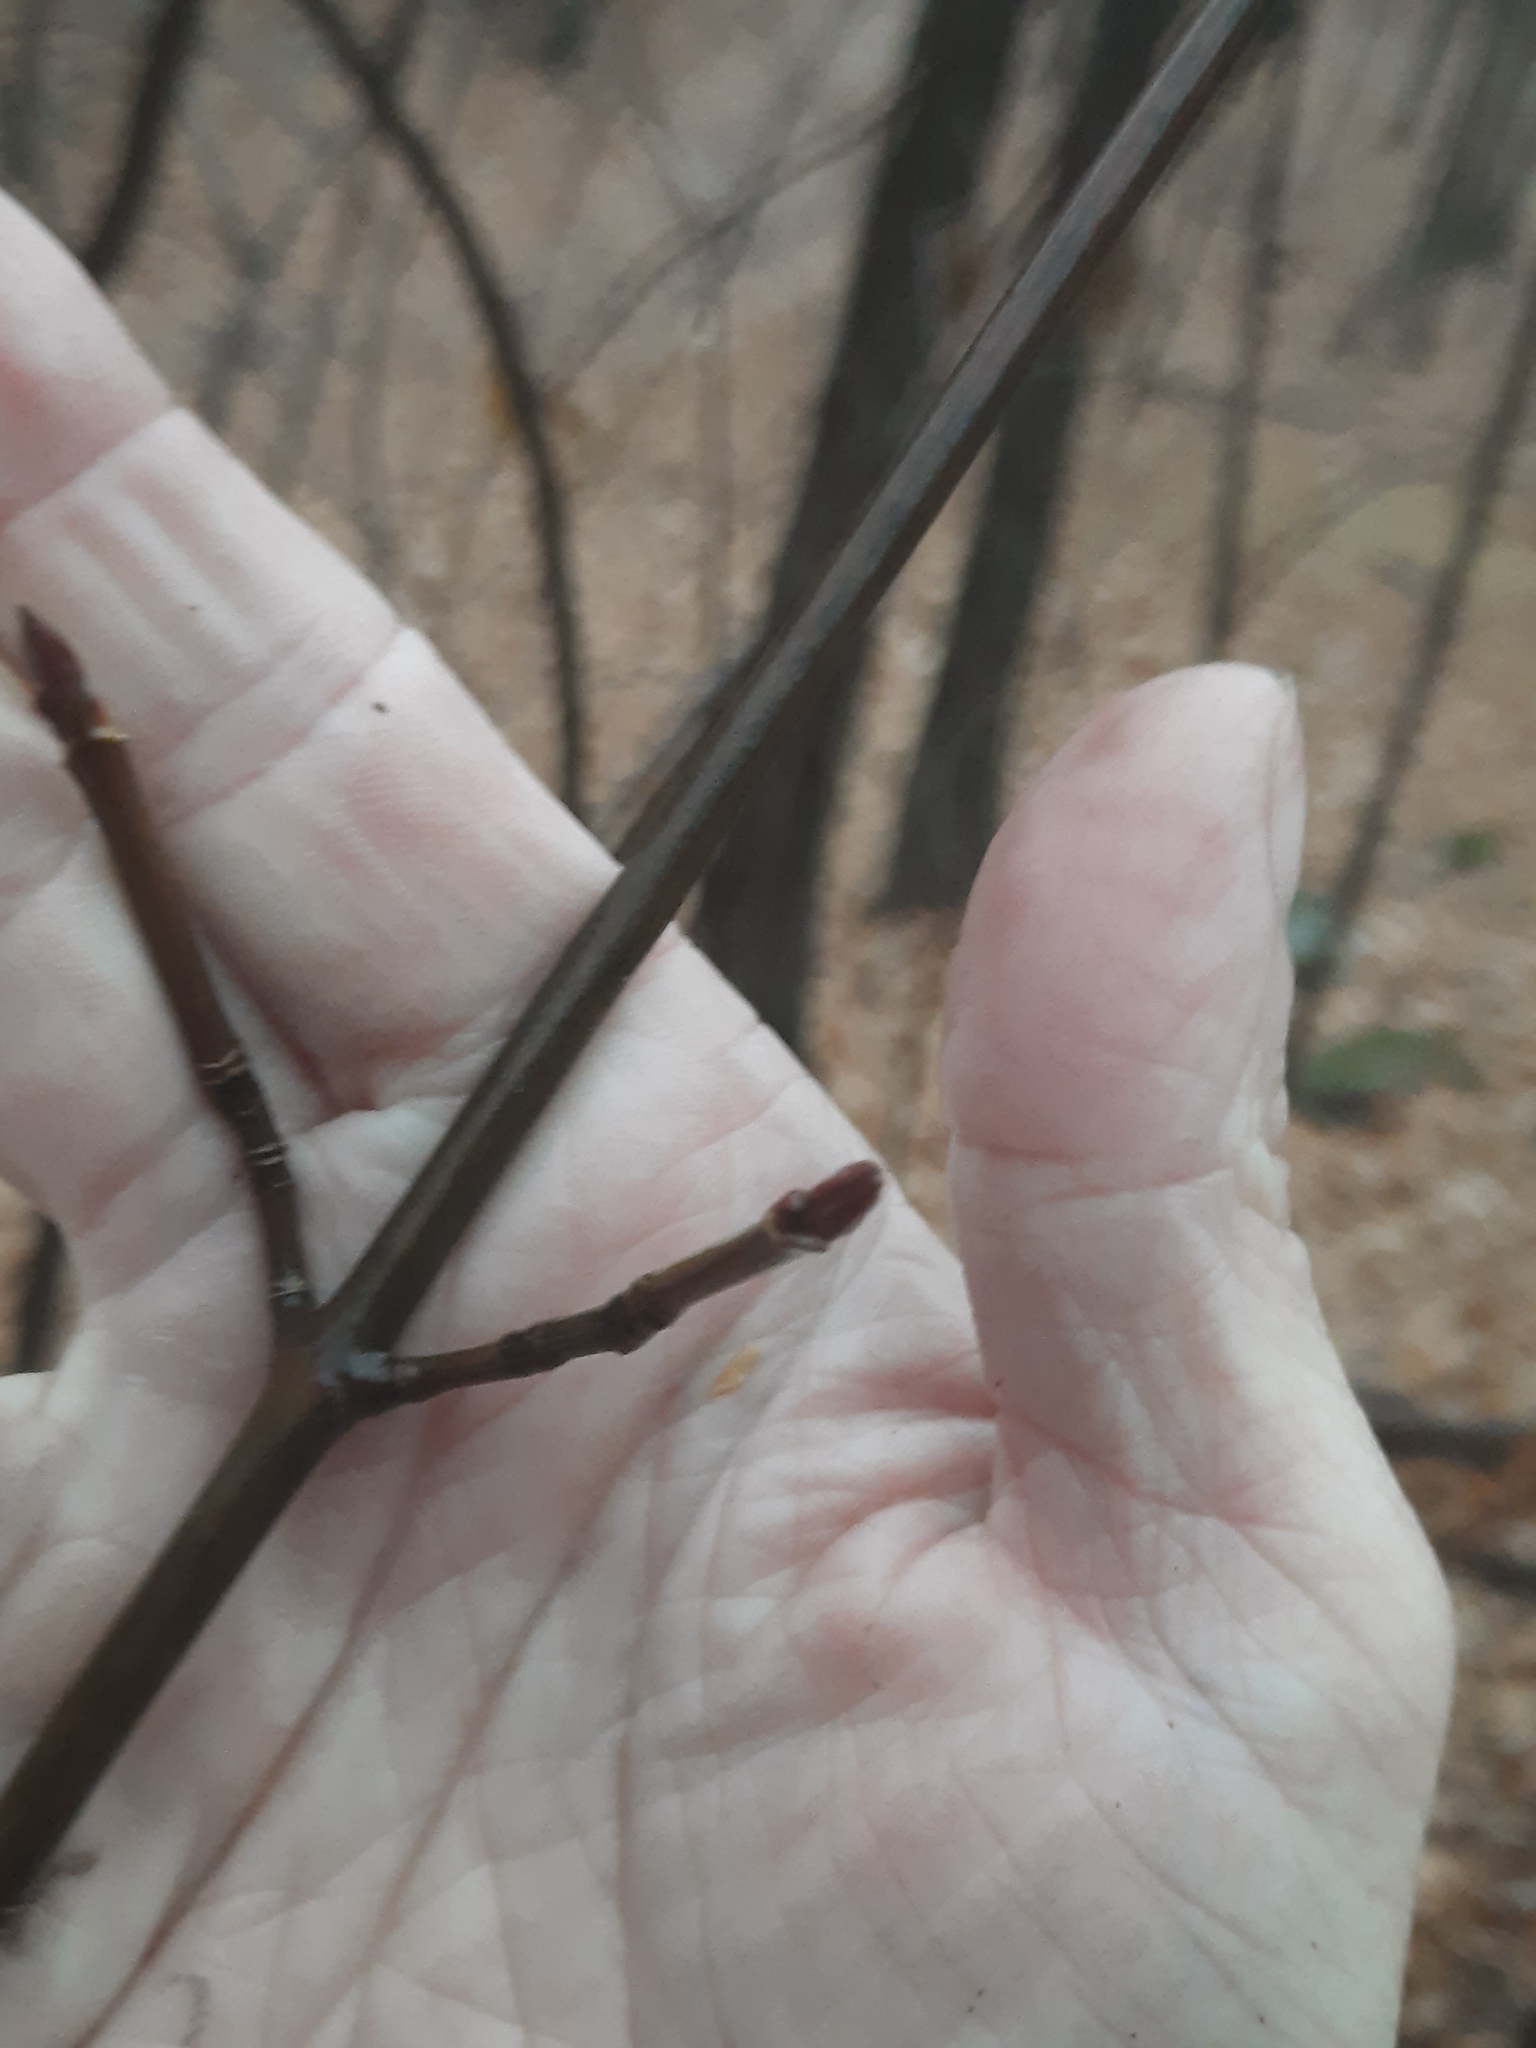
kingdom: Plantae
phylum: Tracheophyta
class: Magnoliopsida
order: Sapindales
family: Sapindaceae
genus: Acer
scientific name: Acer pensylvanicum
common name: Moosewood
